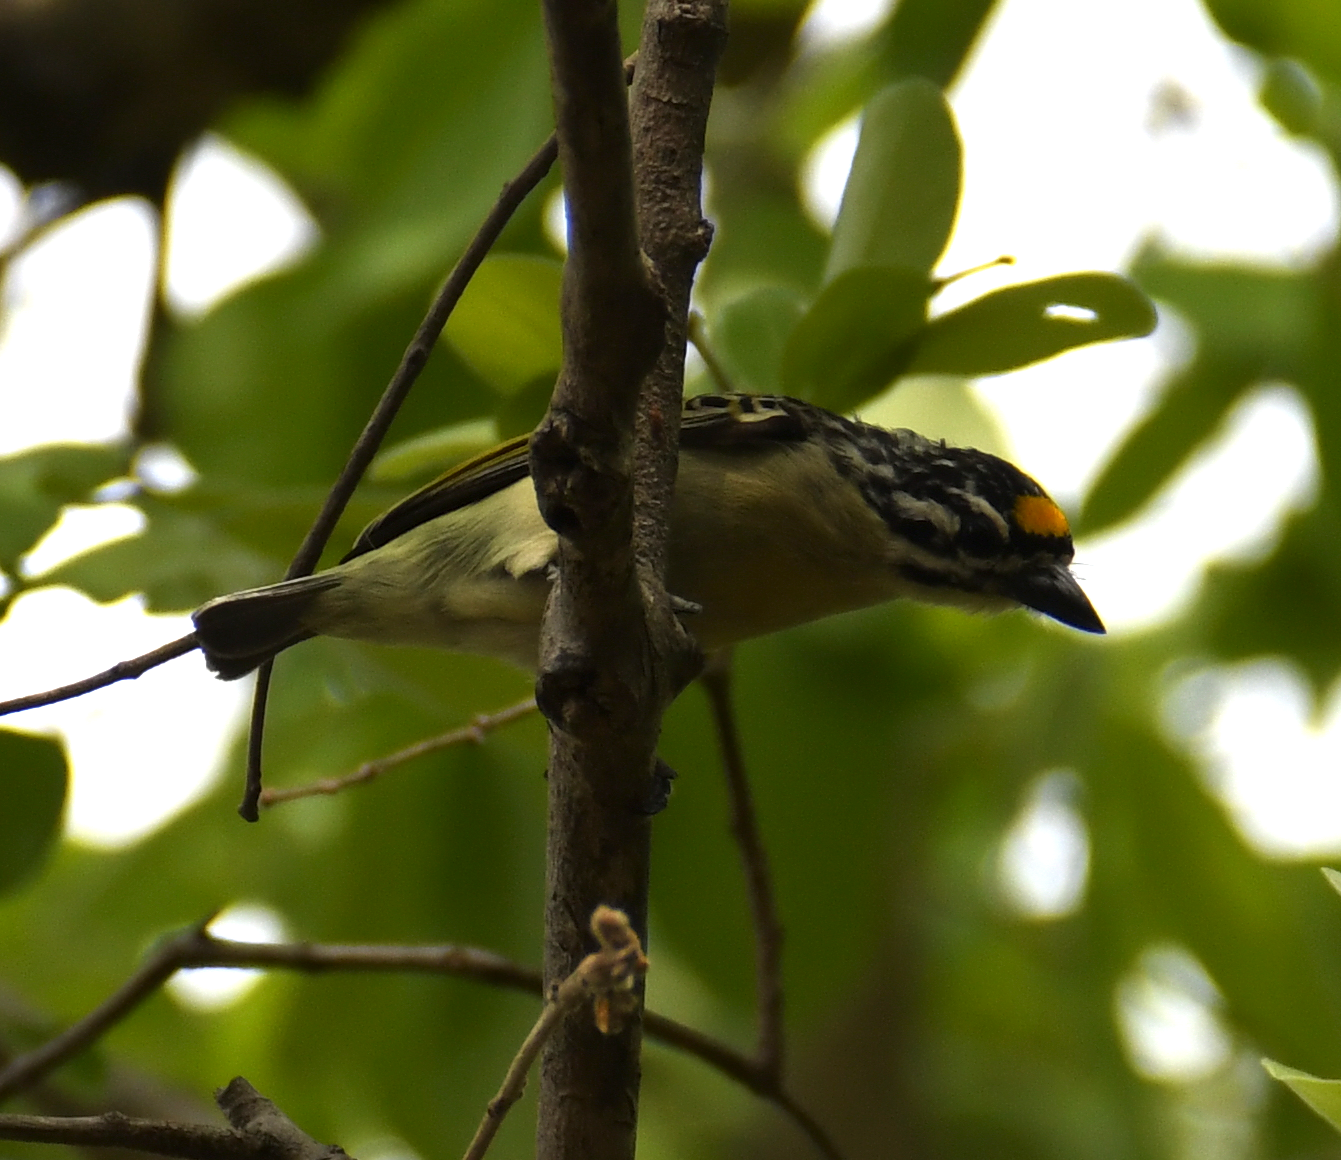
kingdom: Animalia
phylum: Chordata
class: Aves
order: Piciformes
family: Lybiidae
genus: Pogoniulus
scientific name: Pogoniulus chrysoconus
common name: Yellow-fronted tinkerbird
